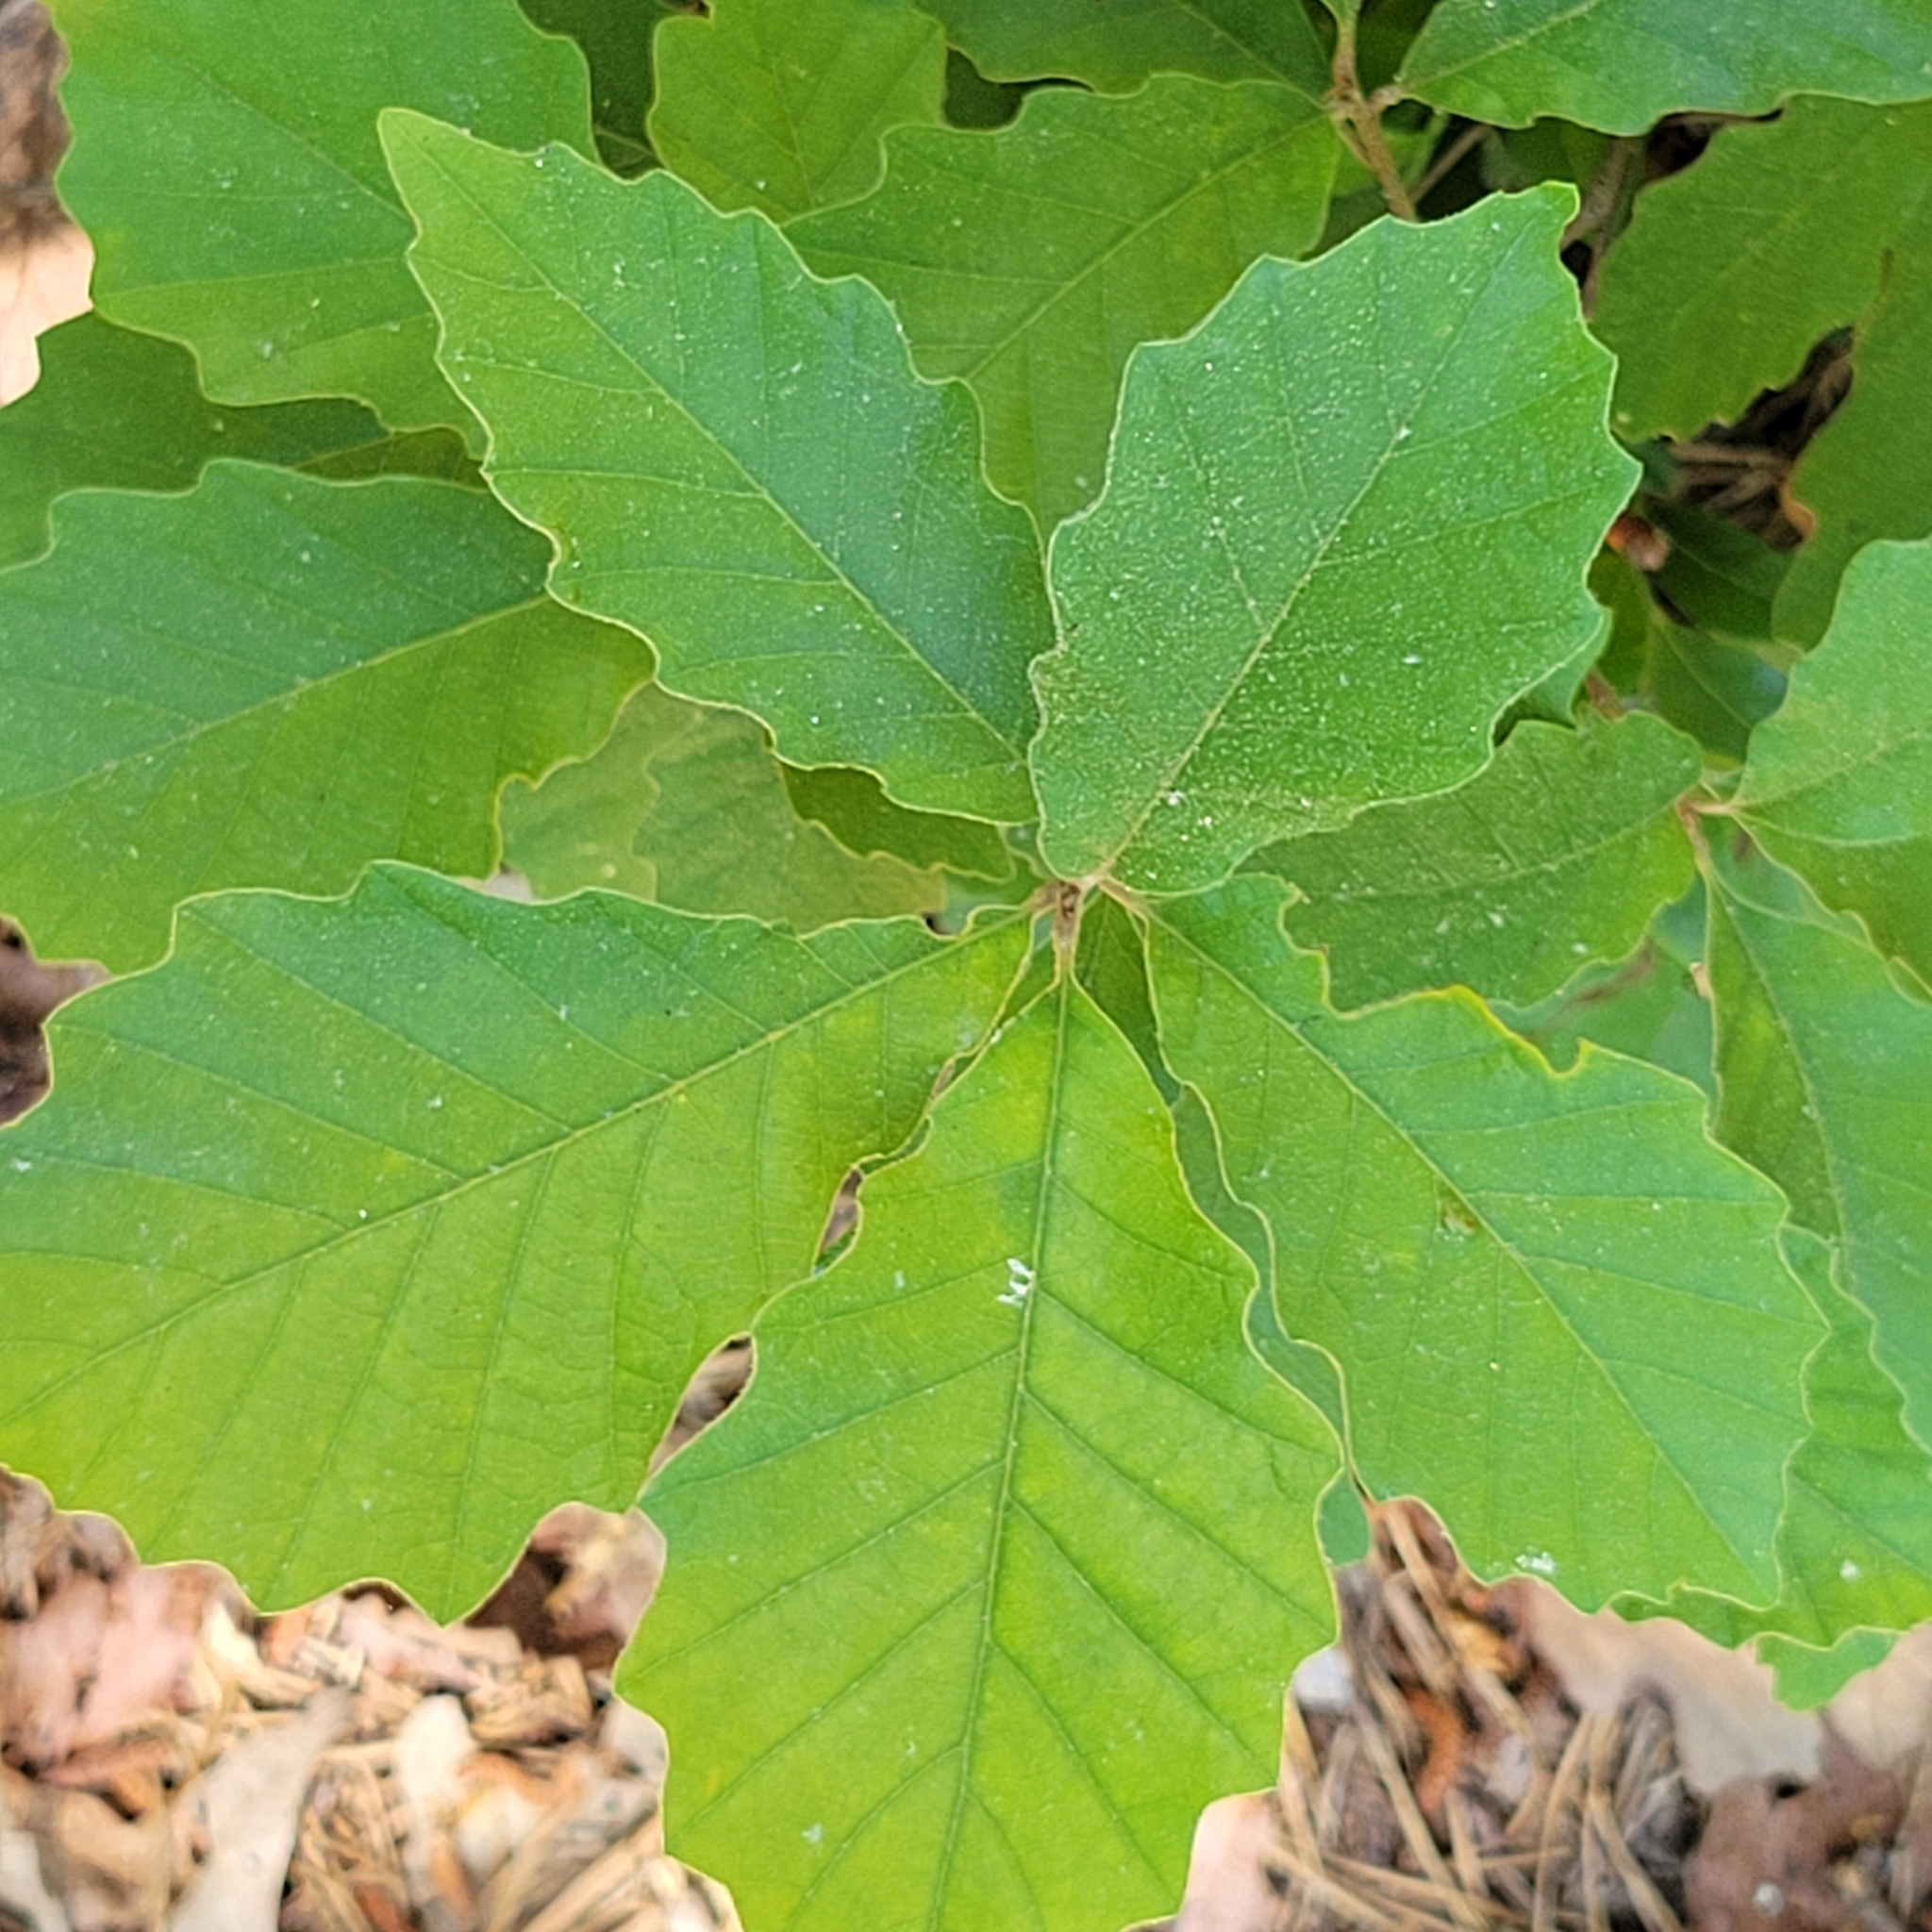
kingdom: Plantae
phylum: Tracheophyta
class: Magnoliopsida
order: Fagales
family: Fagaceae
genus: Quercus
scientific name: Quercus prinoides
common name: Dwarf chinkapin oak
